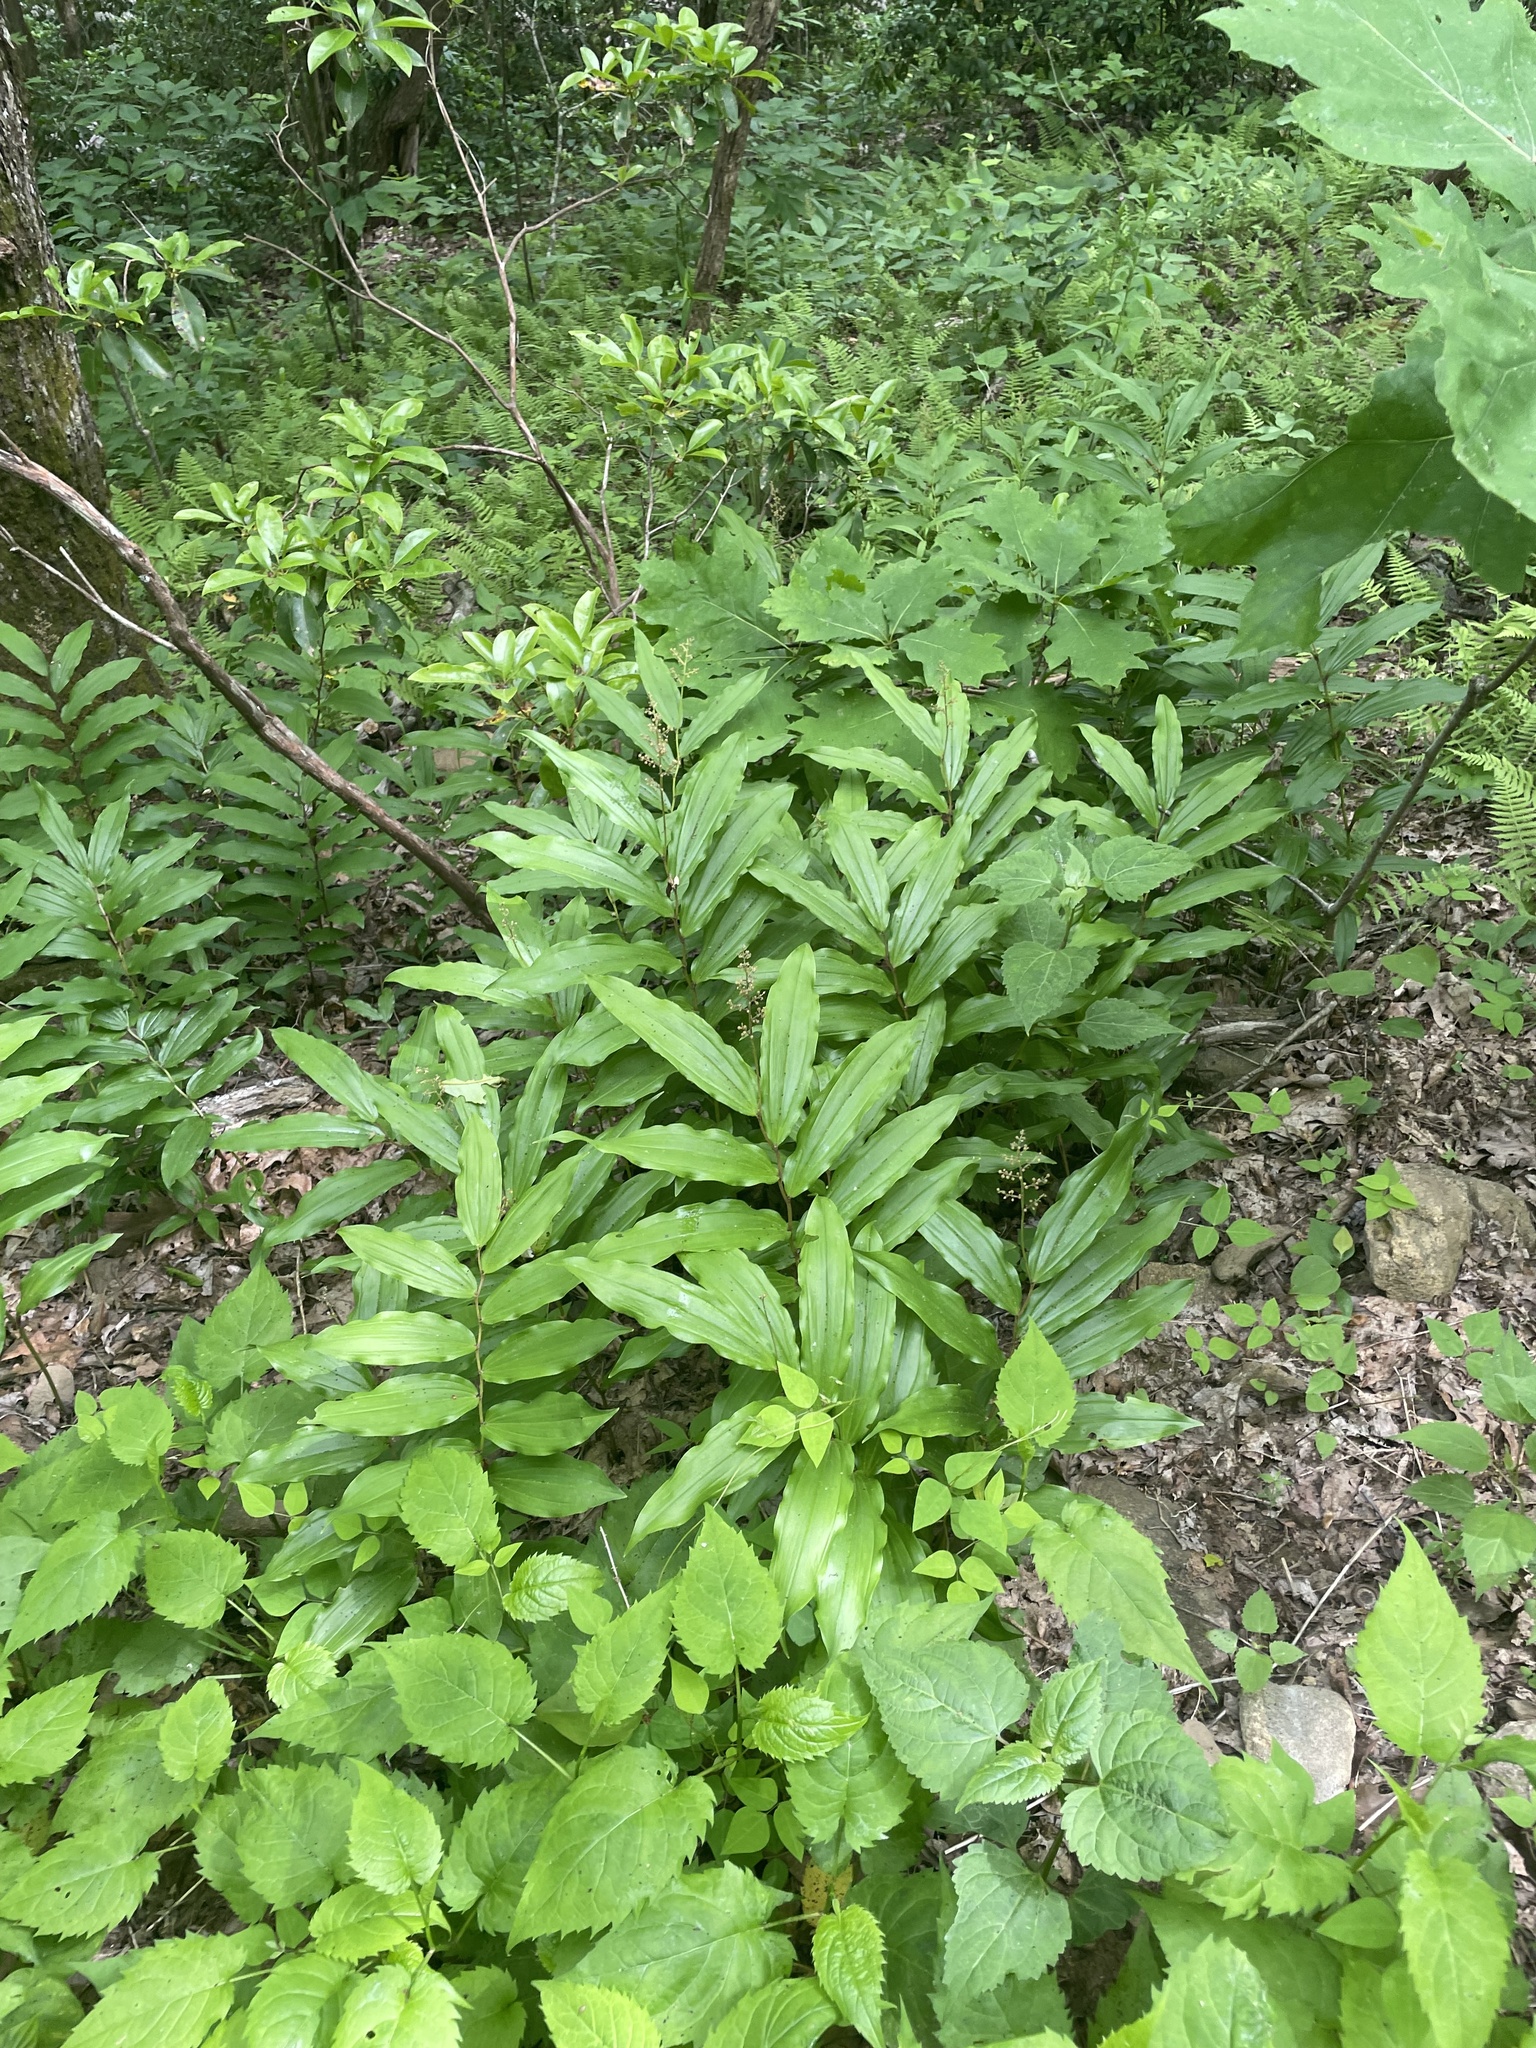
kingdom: Plantae
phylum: Tracheophyta
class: Liliopsida
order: Asparagales
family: Asparagaceae
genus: Maianthemum
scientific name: Maianthemum racemosum
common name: False spikenard
